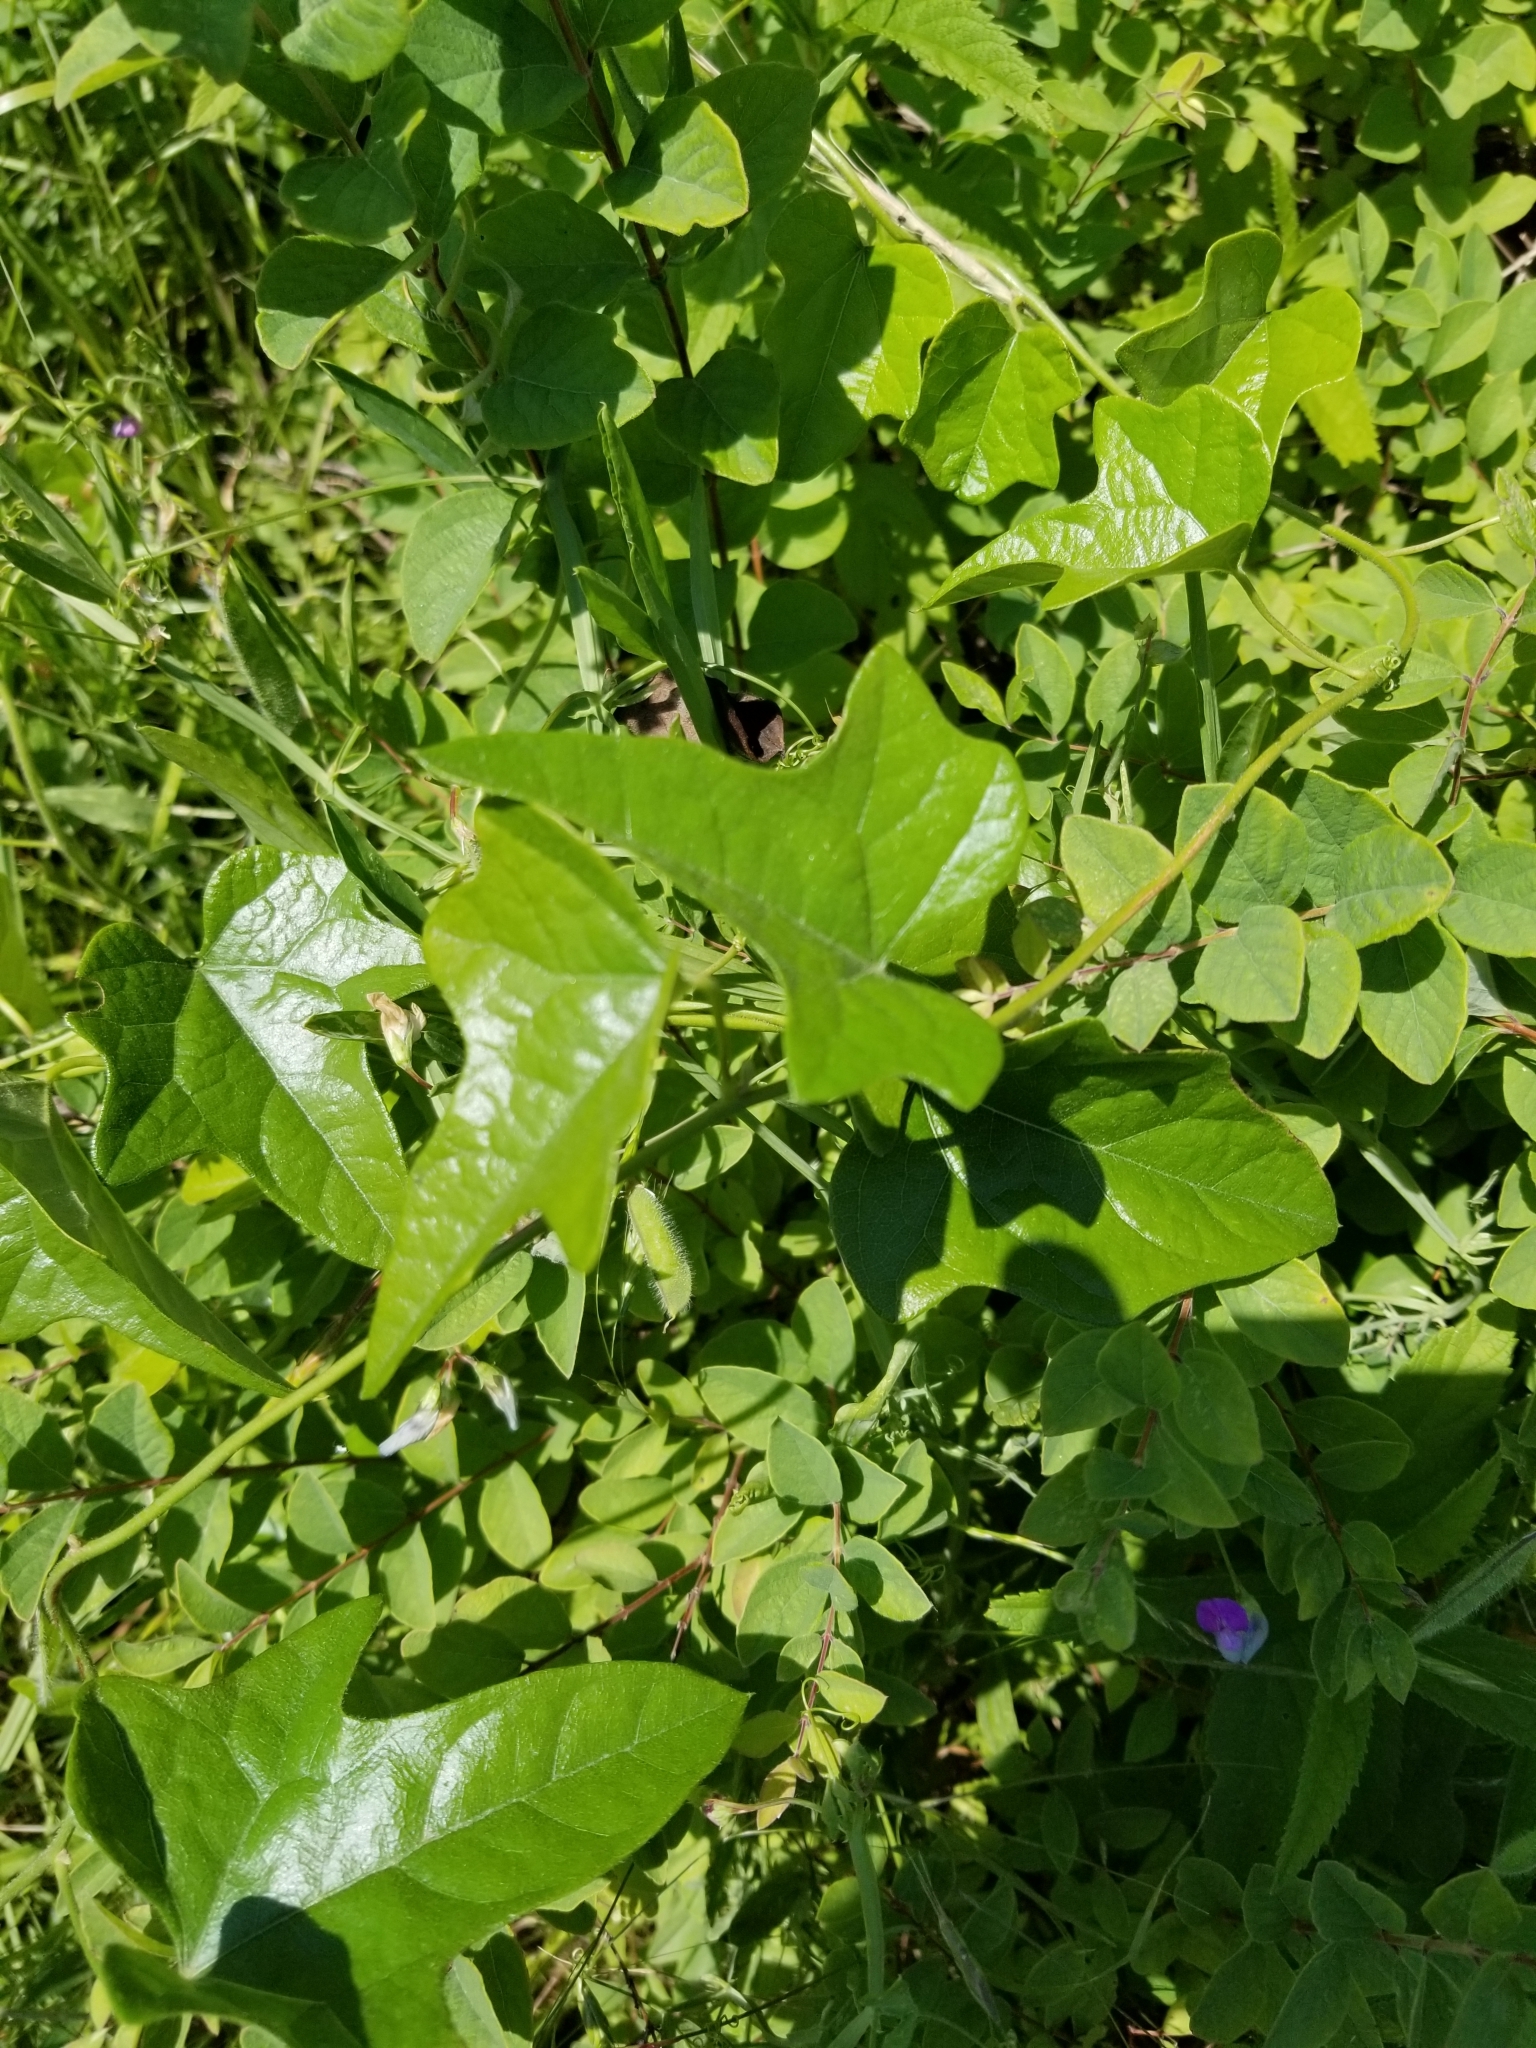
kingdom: Plantae
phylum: Tracheophyta
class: Magnoliopsida
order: Ranunculales
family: Menispermaceae
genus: Cocculus
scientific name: Cocculus carolinus
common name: Carolina moonseed
